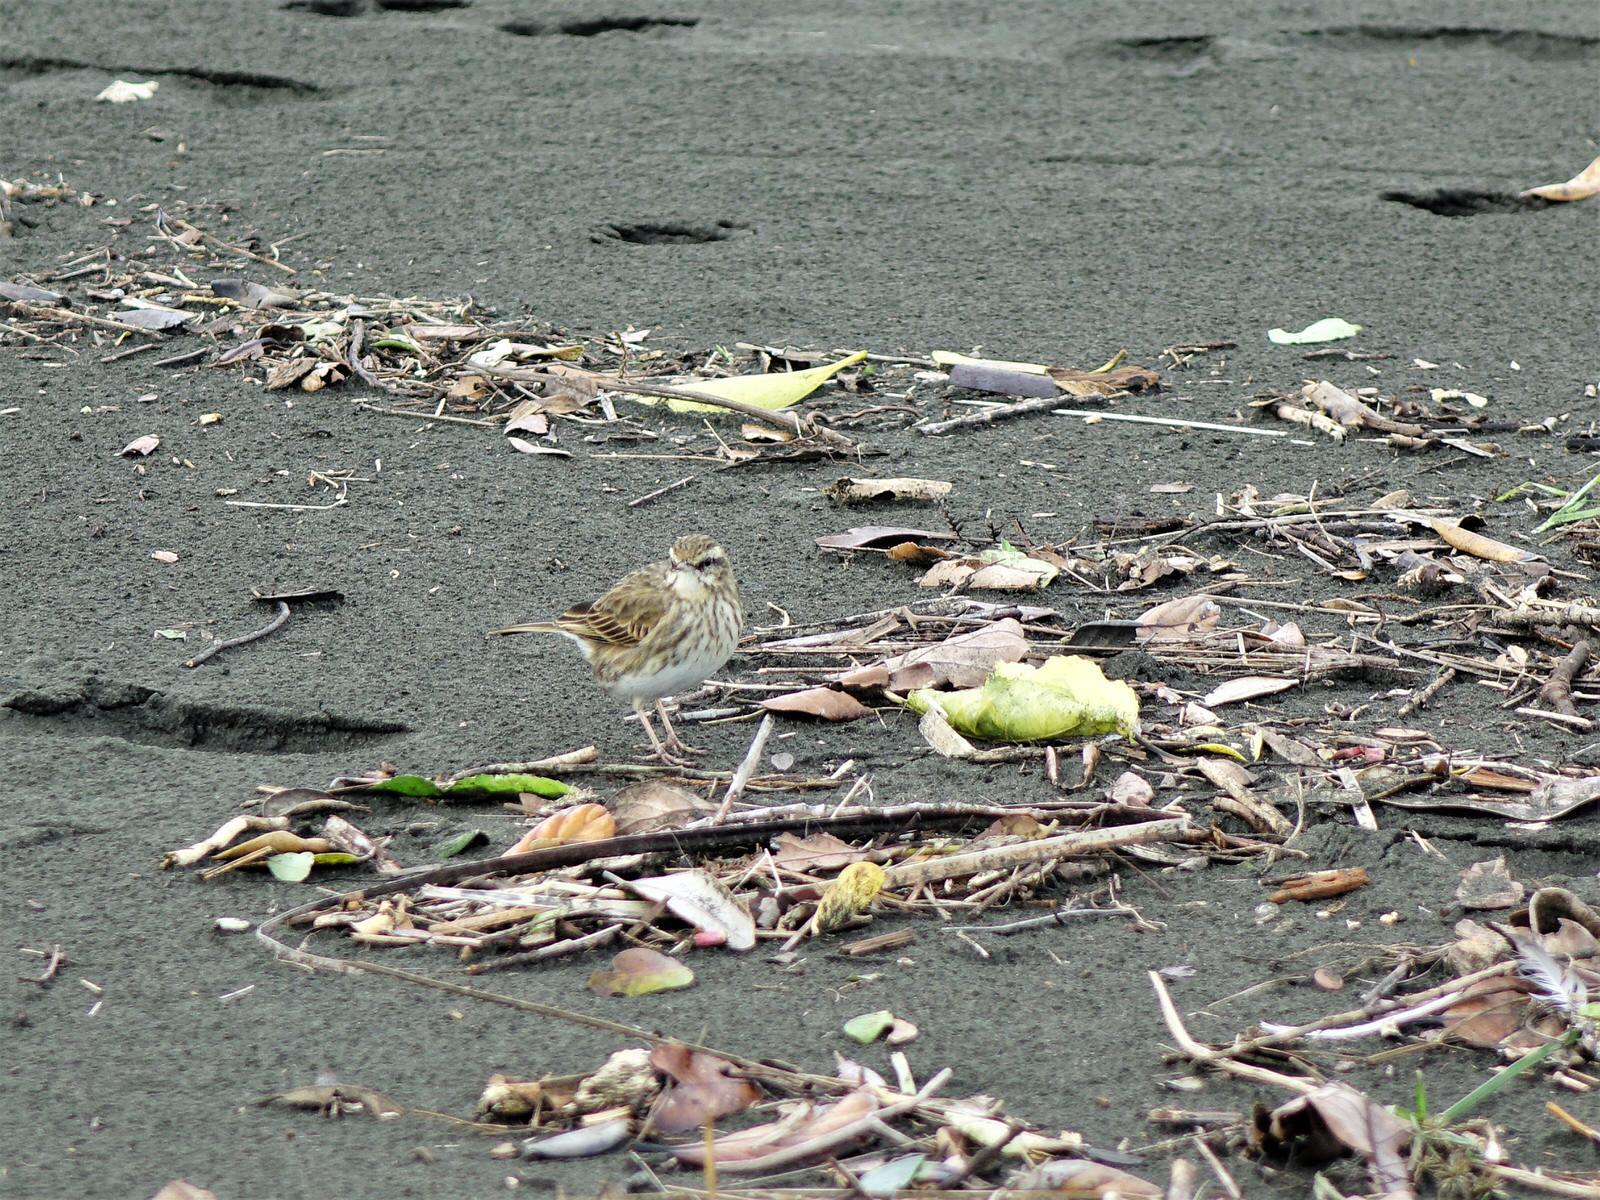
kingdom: Animalia
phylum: Chordata
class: Aves
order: Passeriformes
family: Motacillidae
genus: Anthus
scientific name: Anthus novaeseelandiae
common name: New zealand pipit
